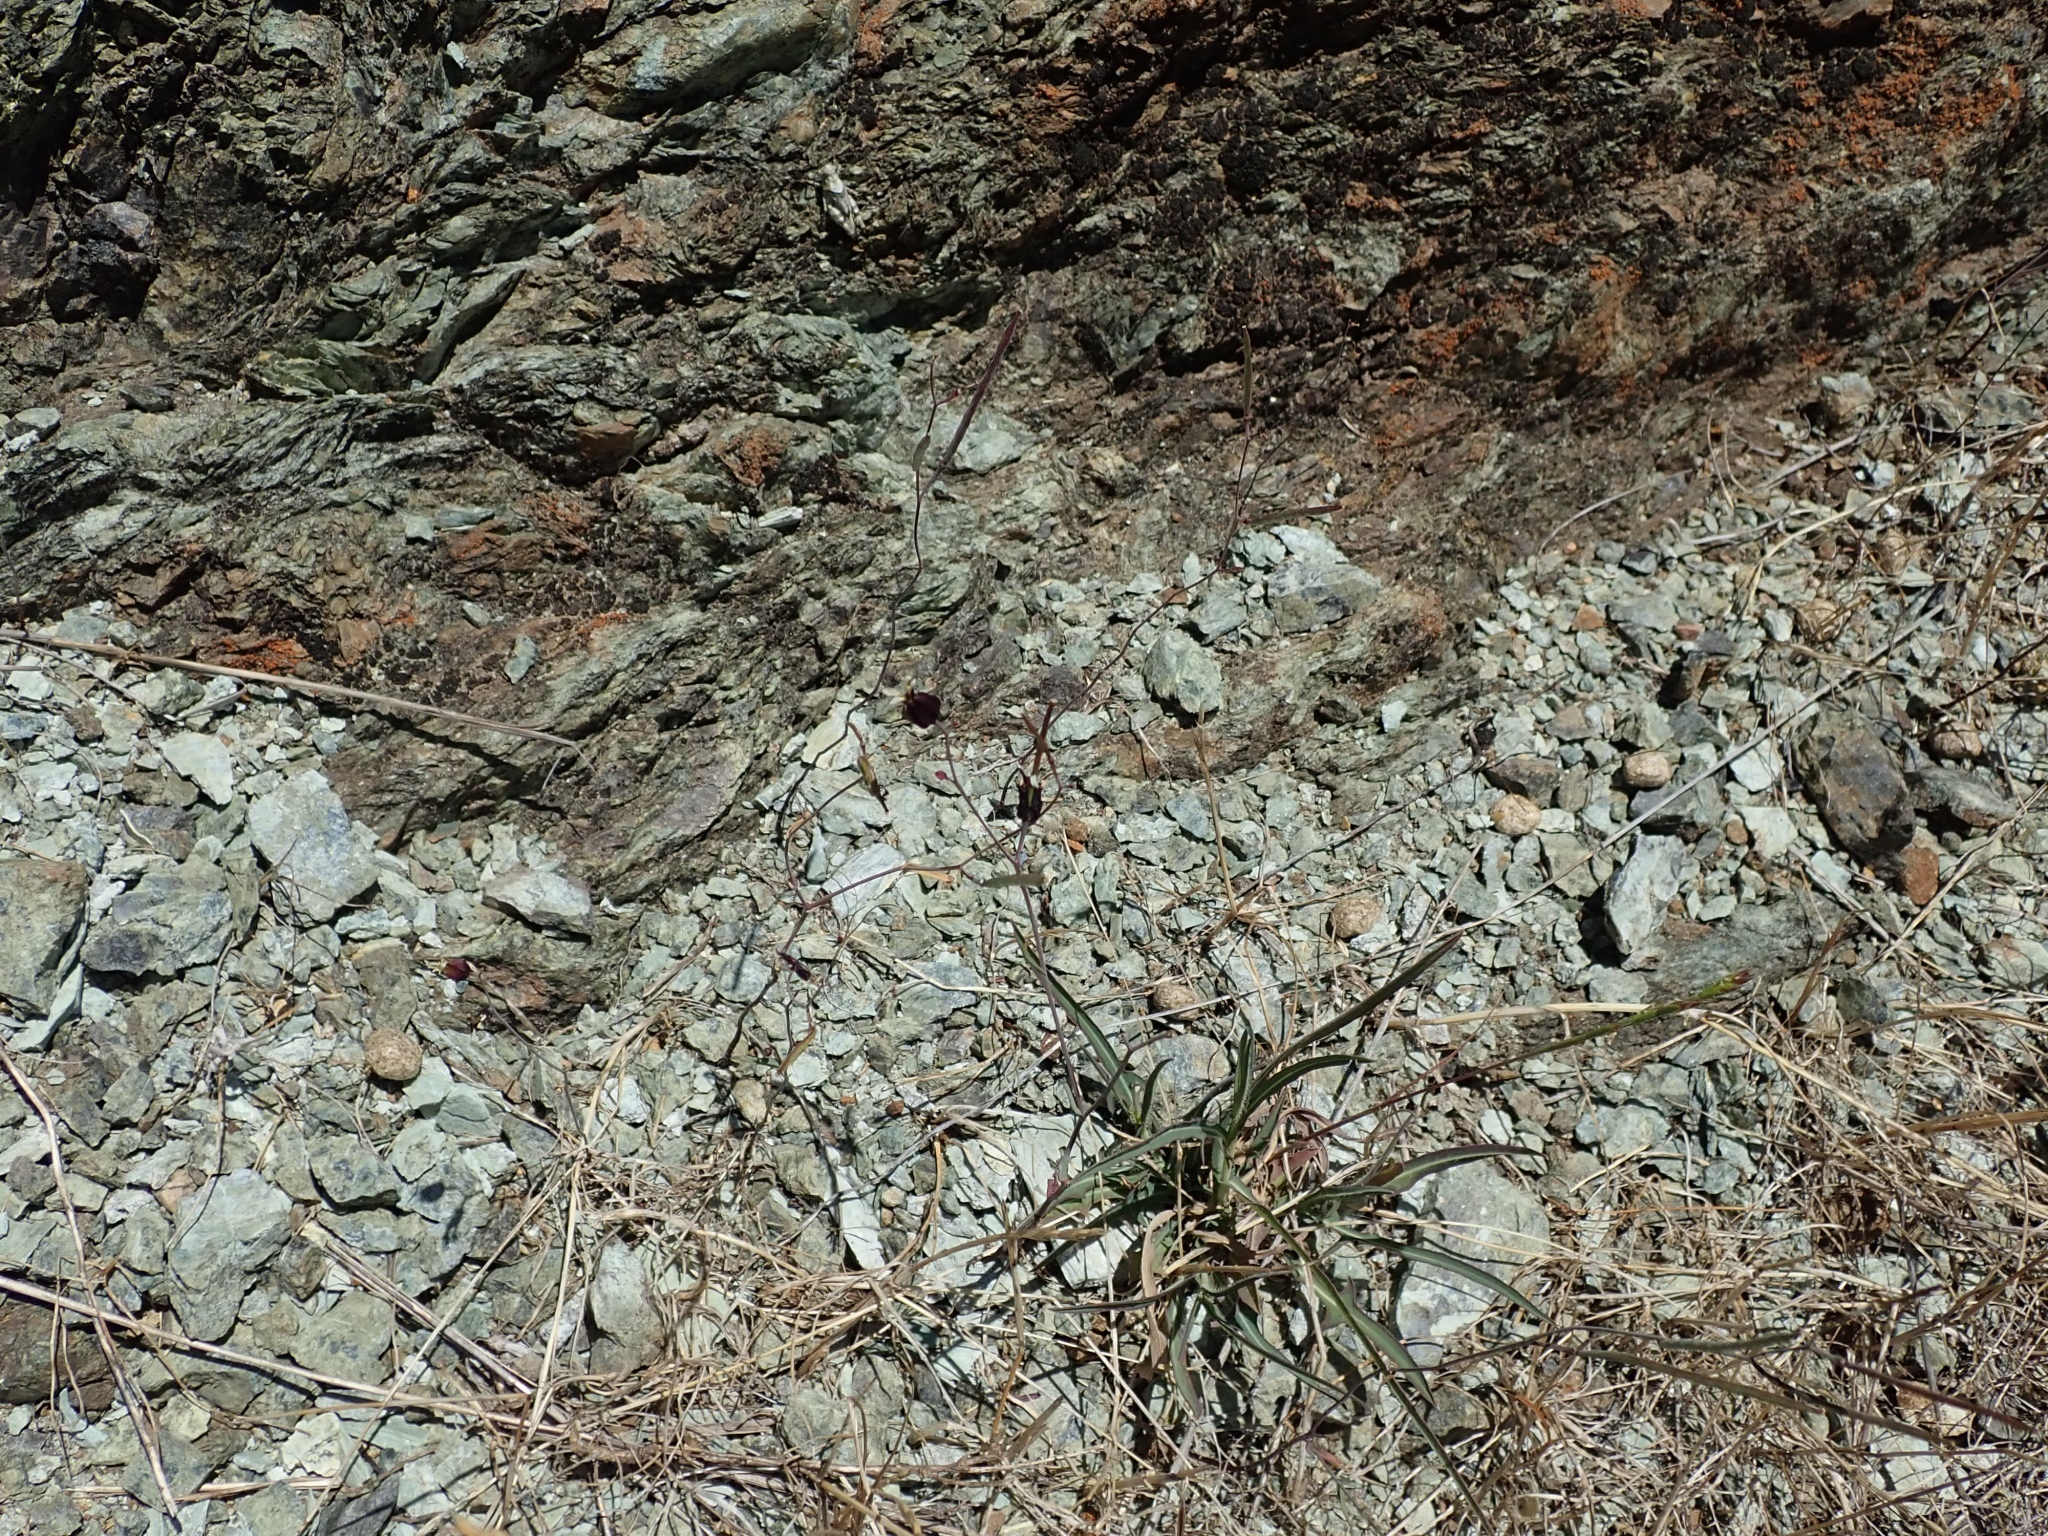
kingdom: Plantae
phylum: Tracheophyta
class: Magnoliopsida
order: Brassicales
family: Brassicaceae
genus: Streptanthus
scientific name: Streptanthus glandulosus
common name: Jewel-flower
